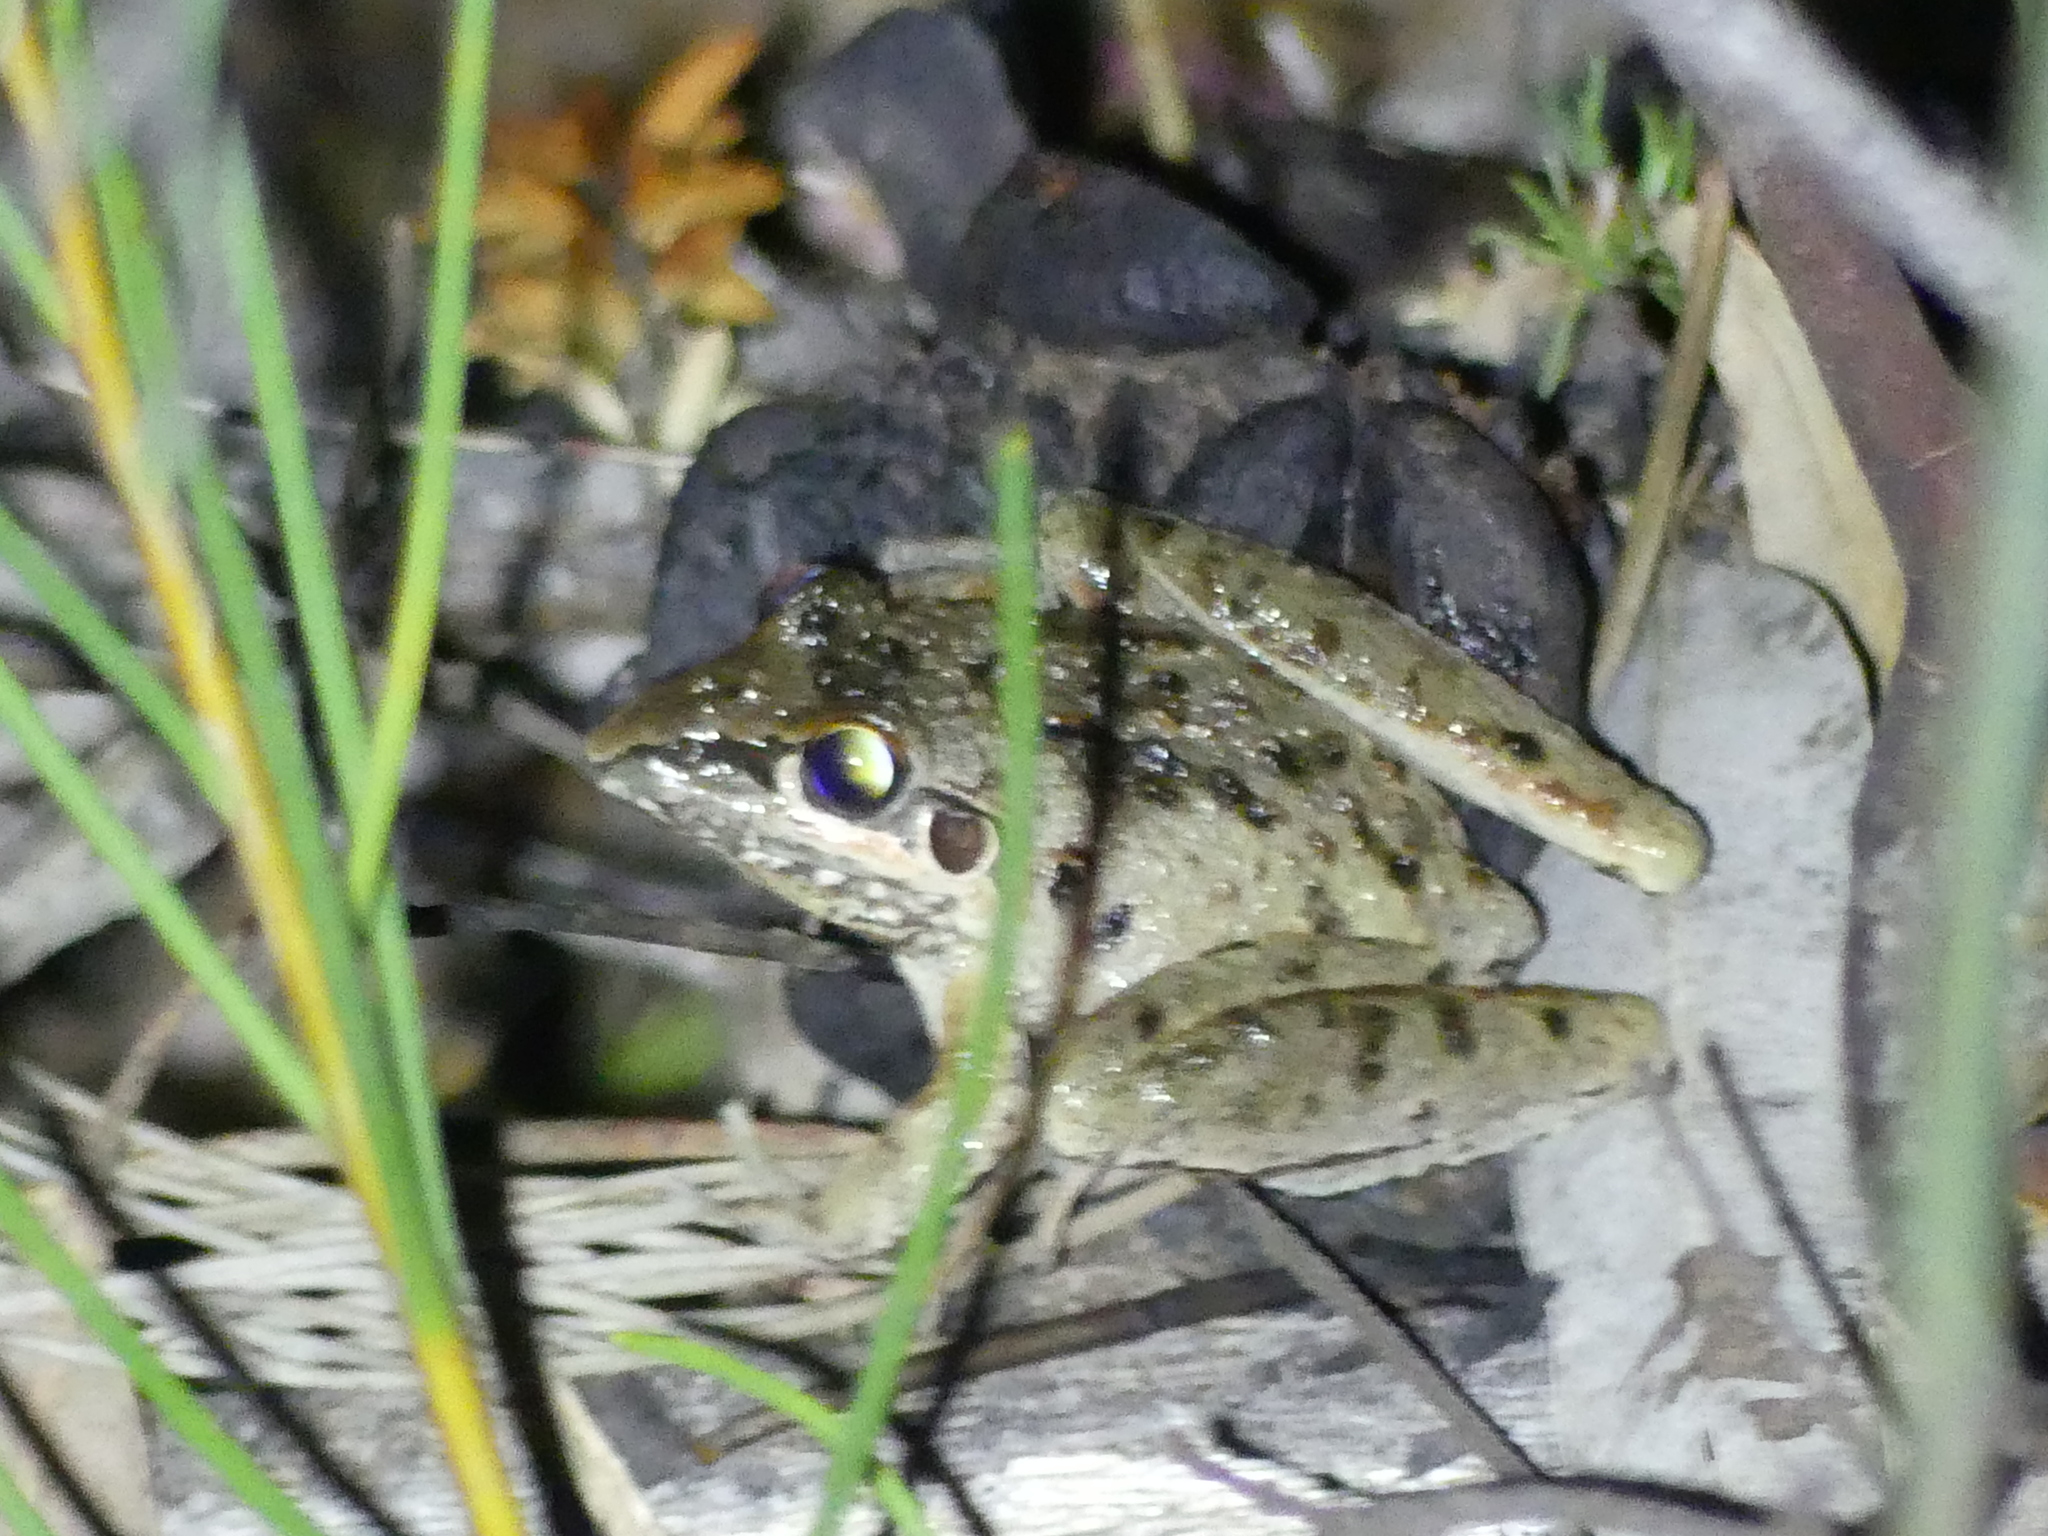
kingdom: Animalia
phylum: Chordata
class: Amphibia
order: Anura
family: Pelodryadidae
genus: Litoria
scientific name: Litoria freycineti
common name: Freycinet’s frog
